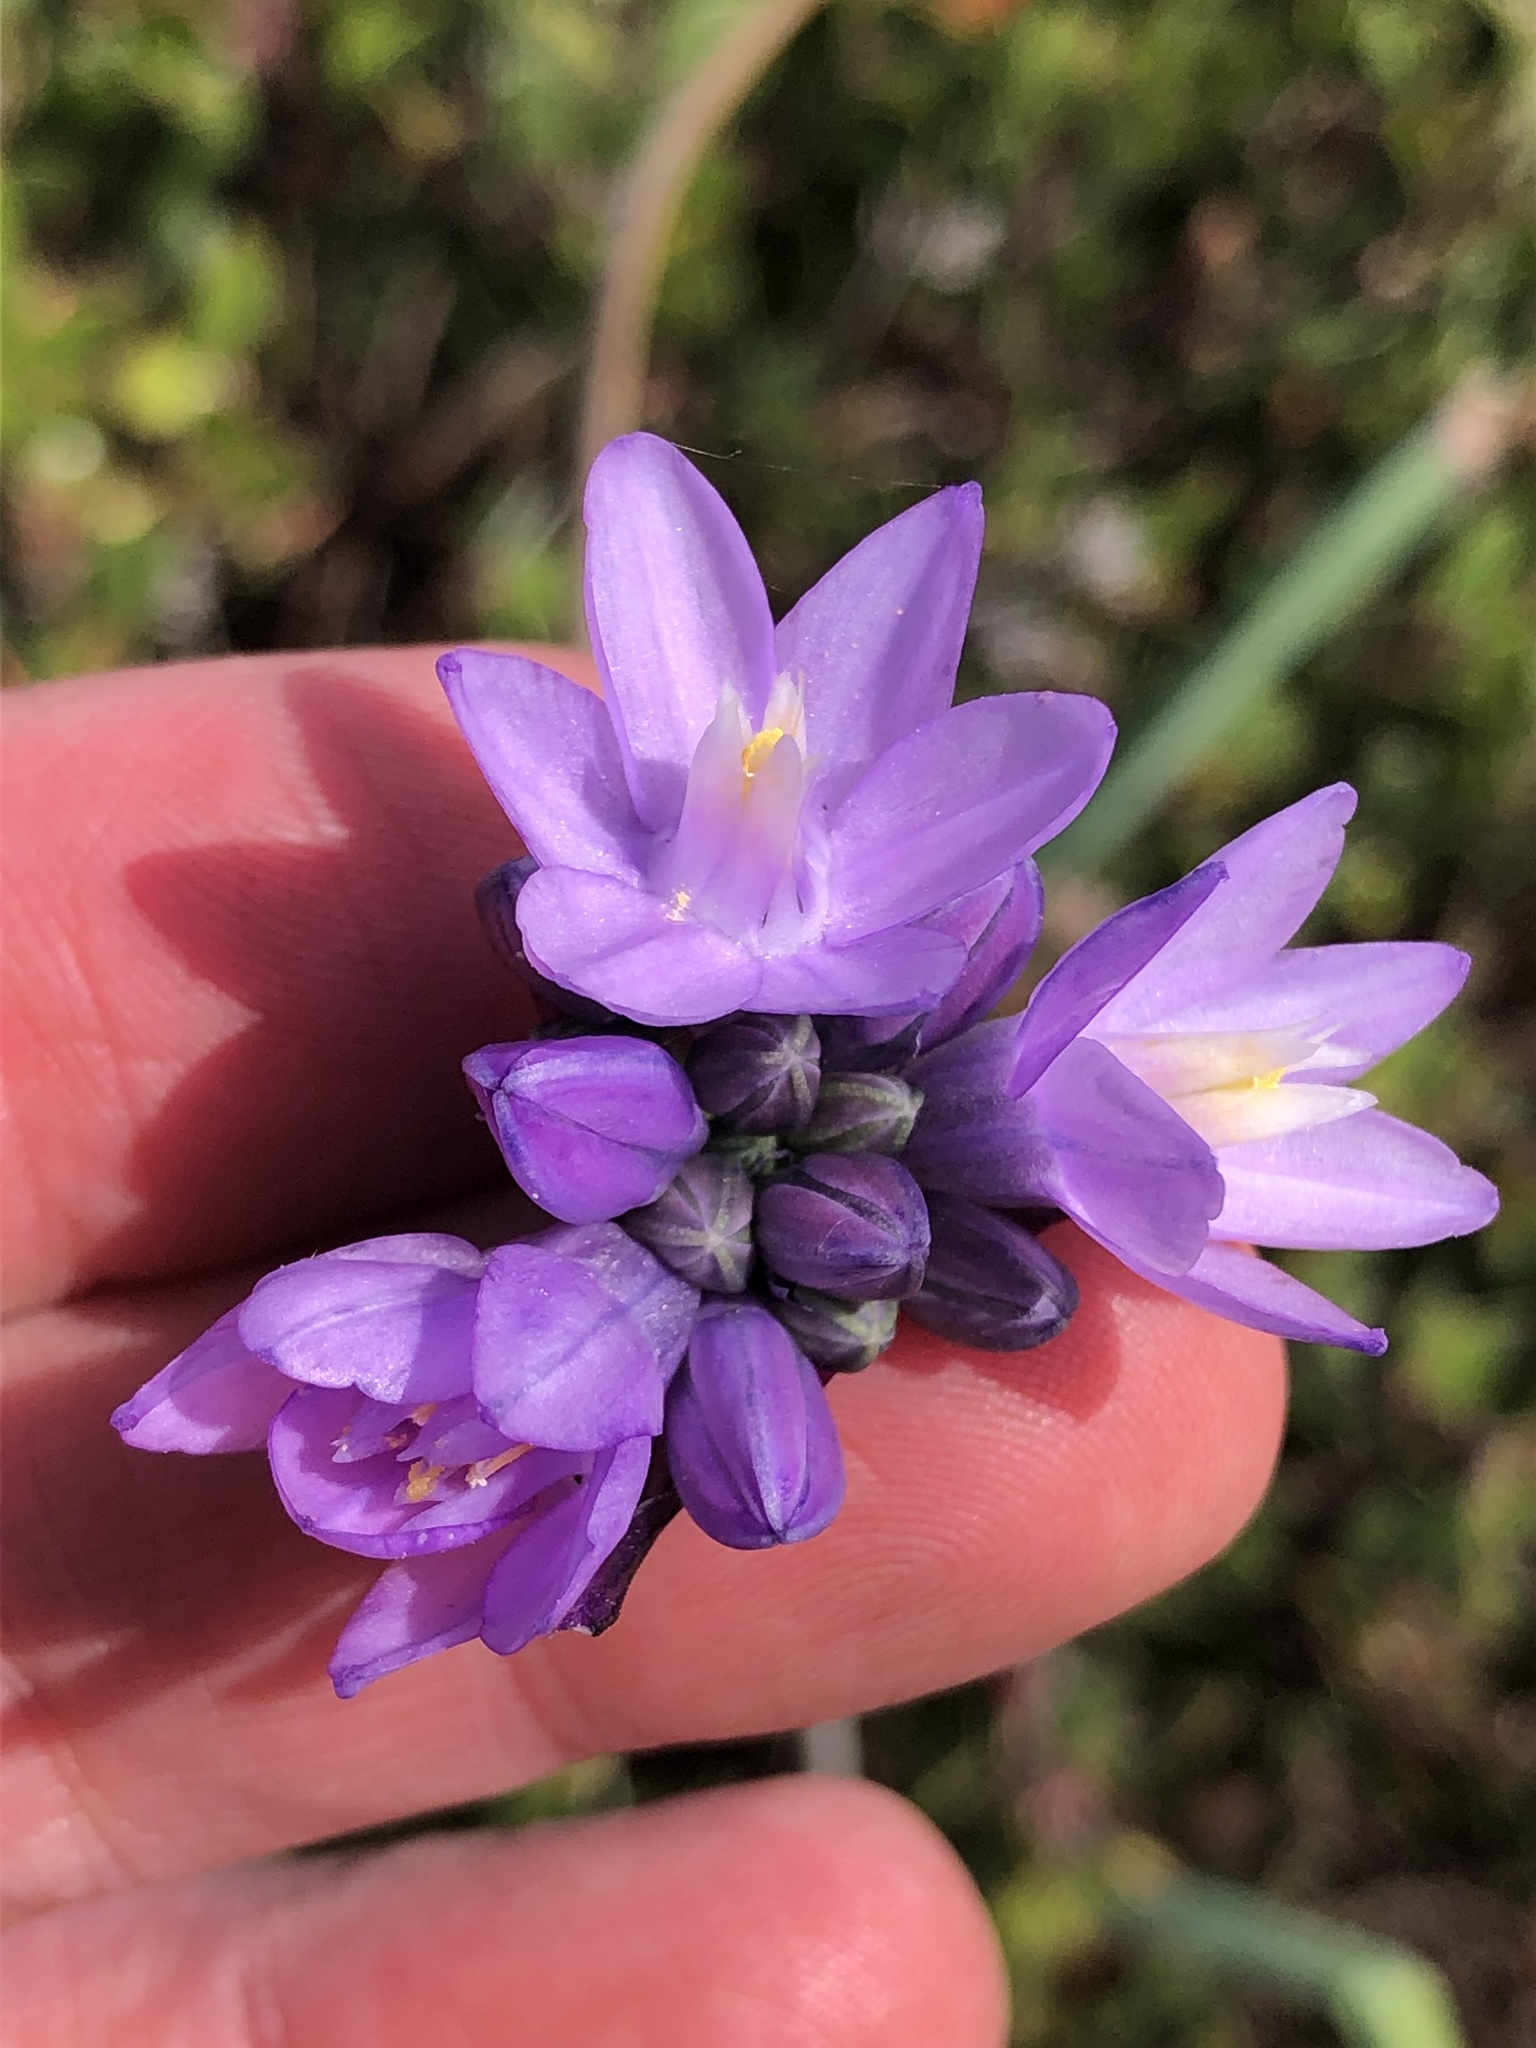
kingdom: Plantae
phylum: Tracheophyta
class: Liliopsida
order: Asparagales
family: Asparagaceae
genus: Dipterostemon
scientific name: Dipterostemon capitatus
